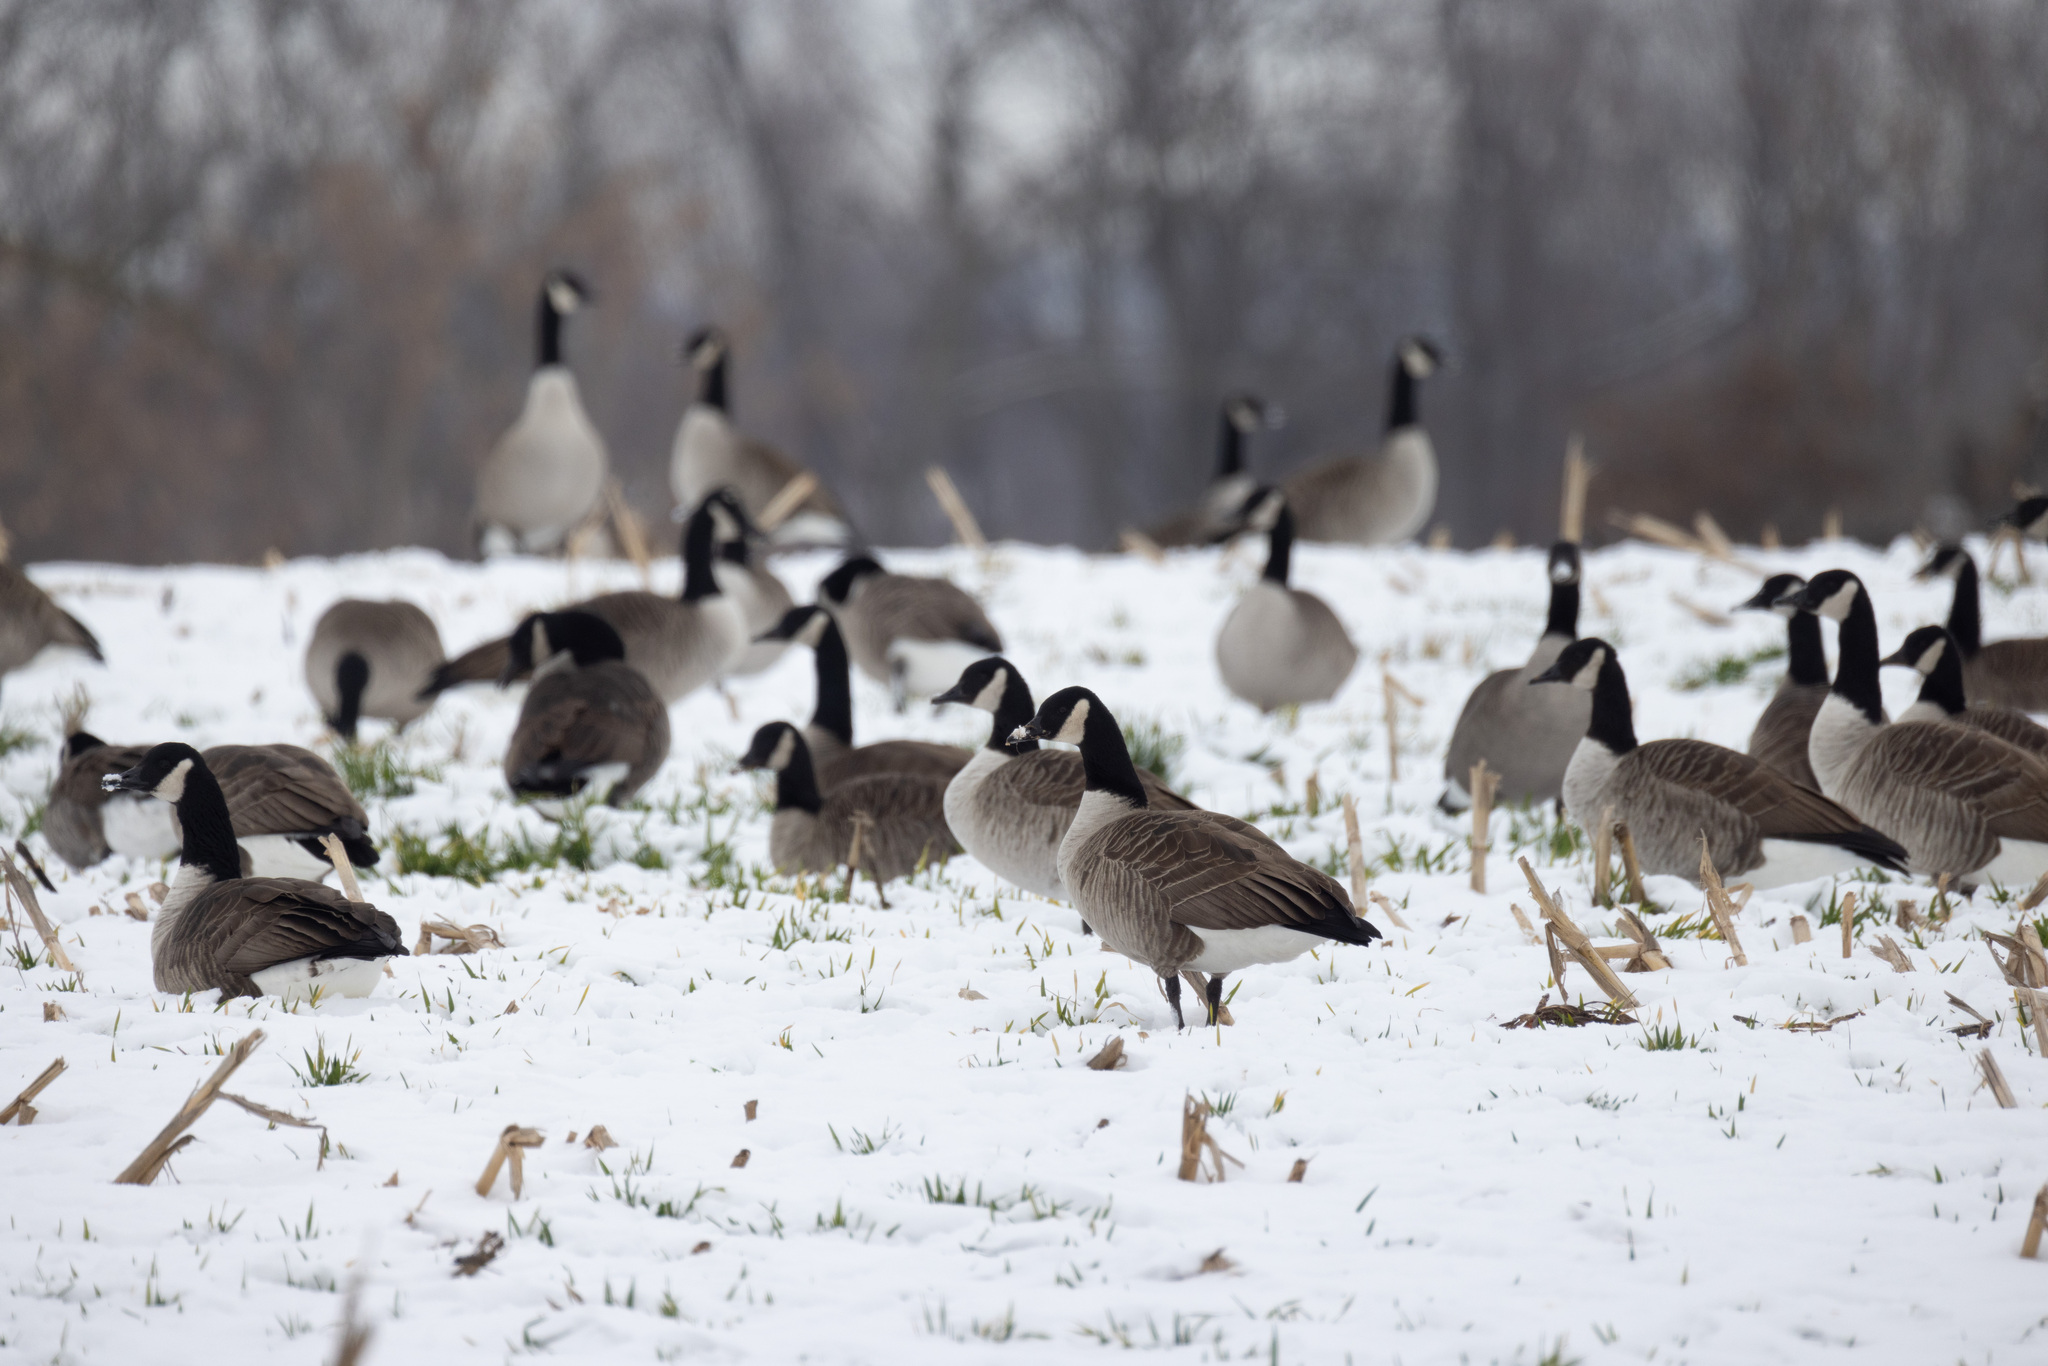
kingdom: Animalia
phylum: Chordata
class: Aves
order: Anseriformes
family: Anatidae
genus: Branta
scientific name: Branta canadensis
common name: Canada goose
